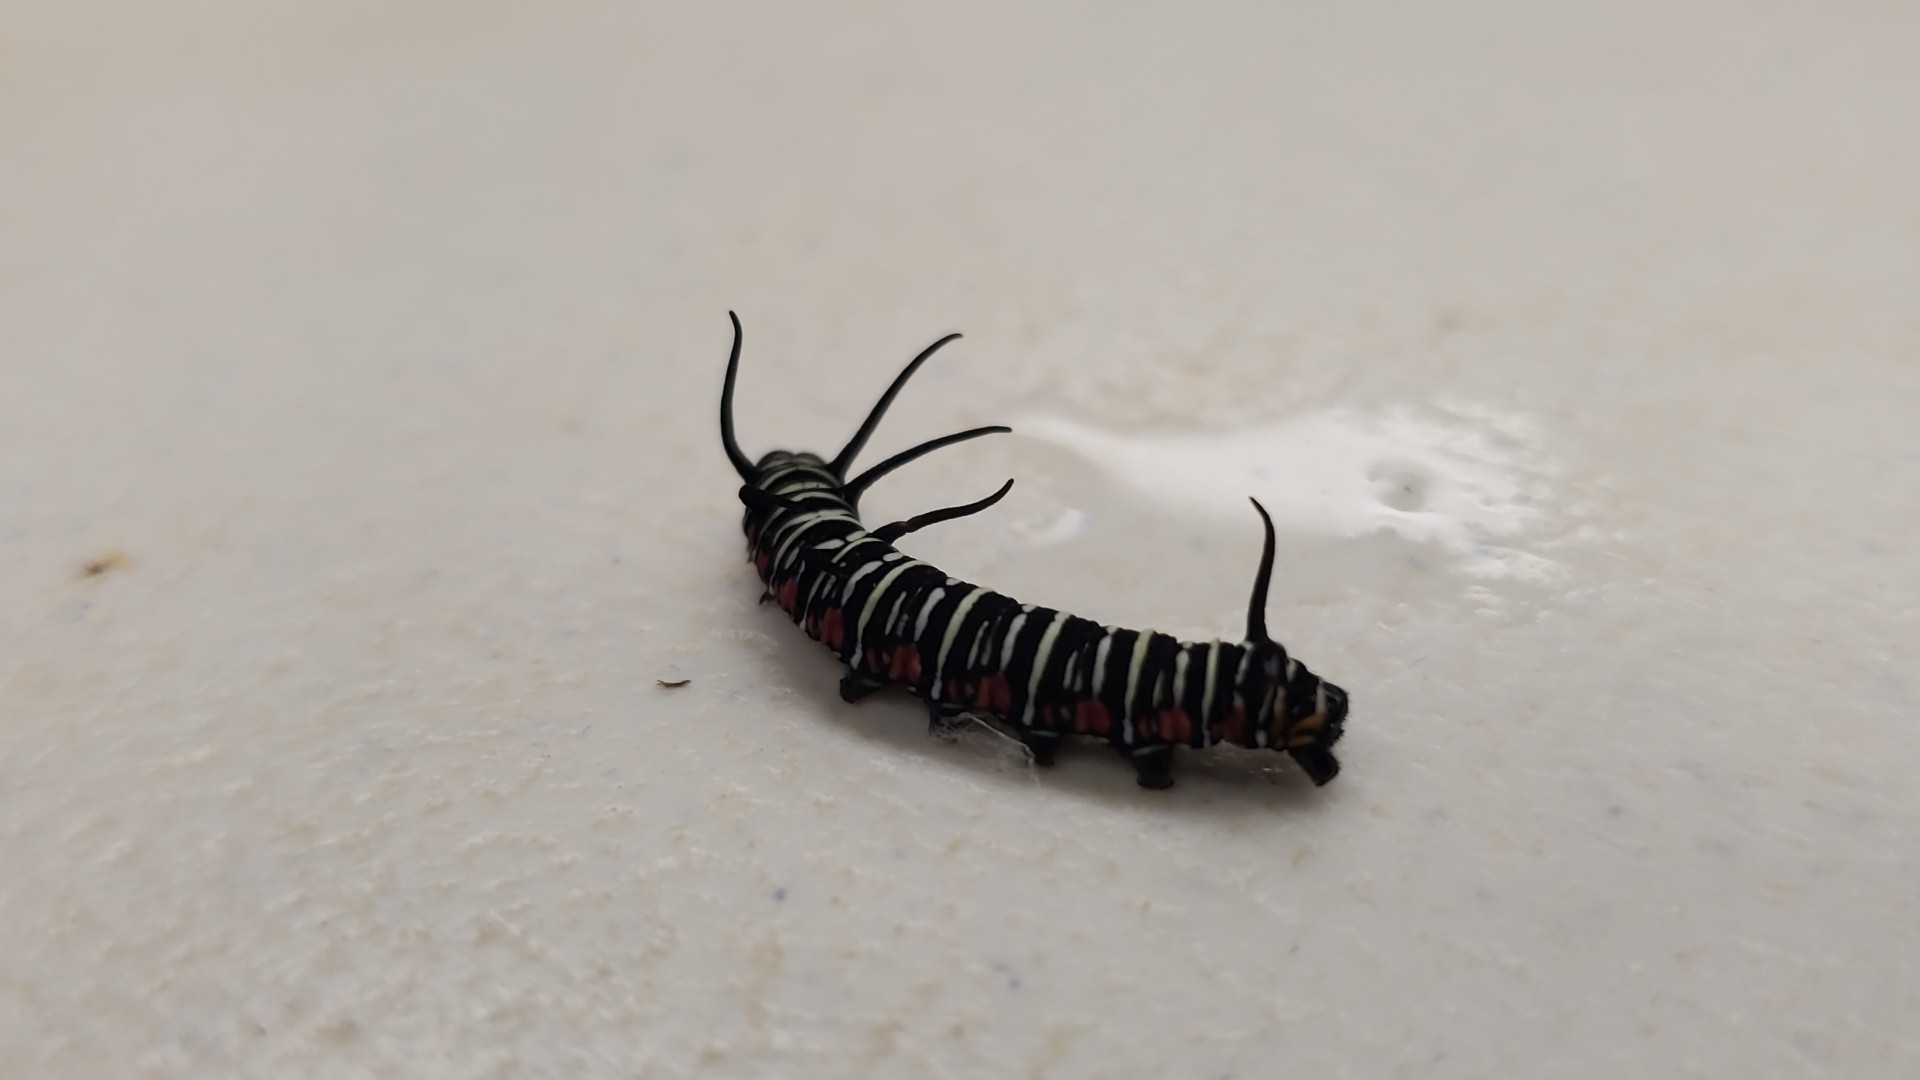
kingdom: Animalia
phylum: Arthropoda
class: Insecta
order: Lepidoptera
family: Nymphalidae
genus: Euploea
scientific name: Euploea eunice
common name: Blue-banded king crow butterfly
